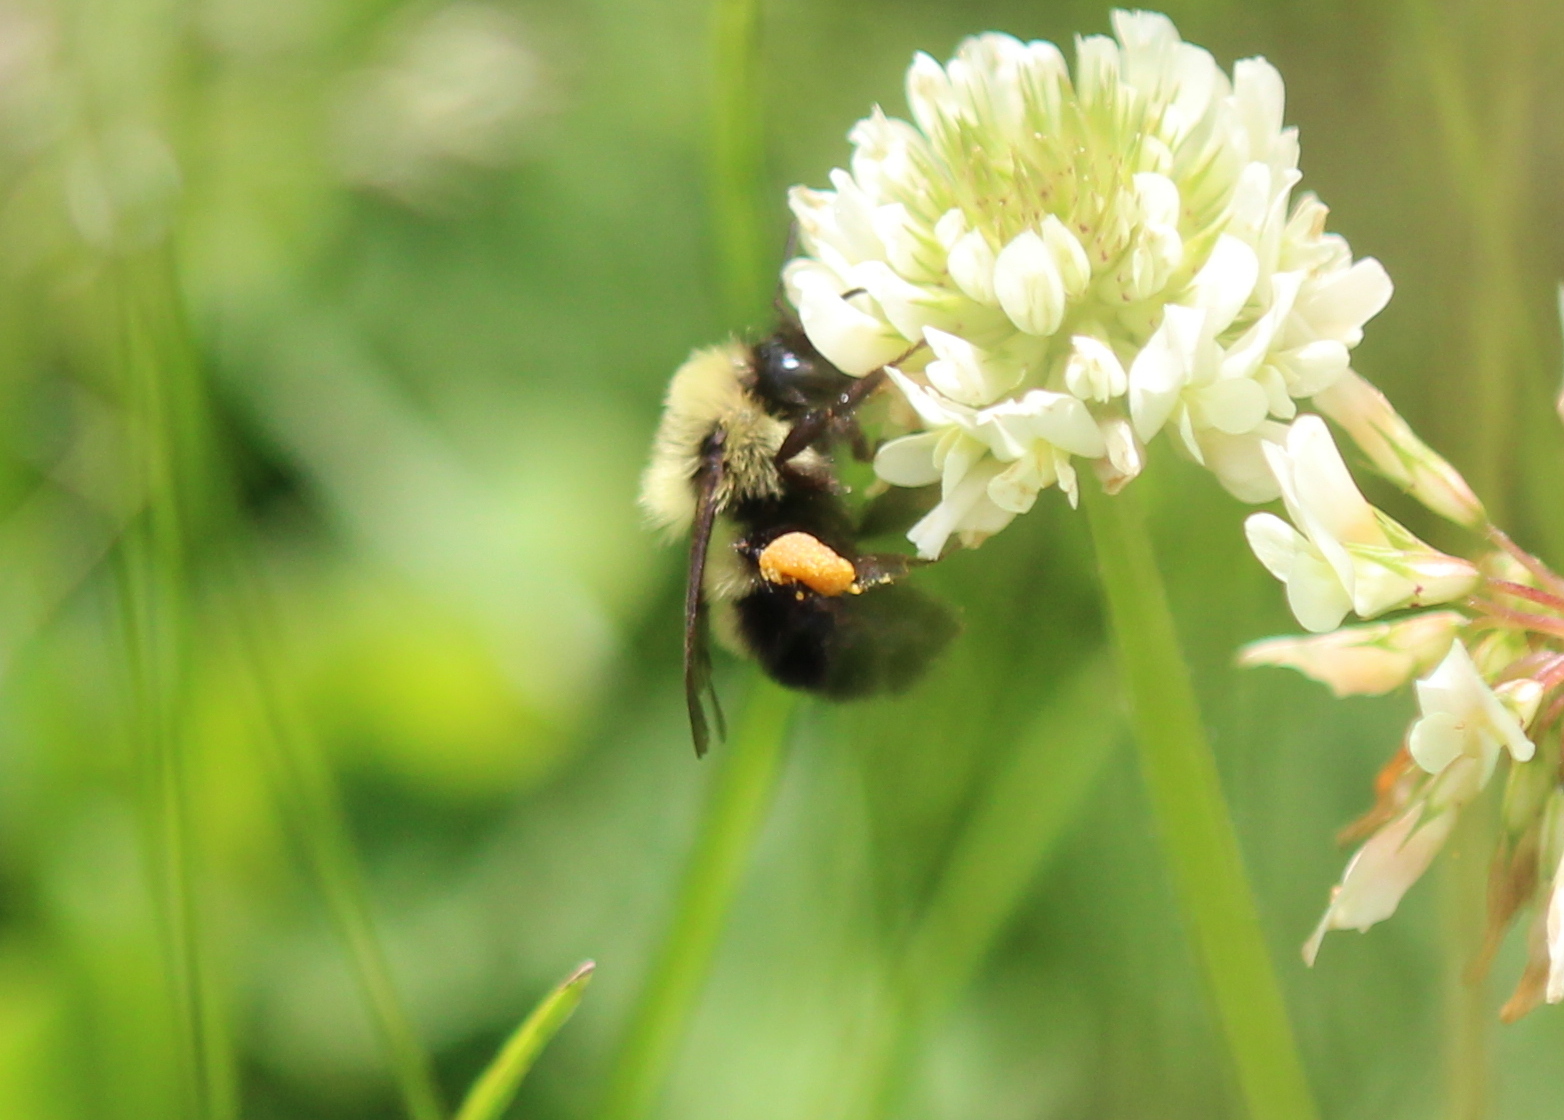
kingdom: Animalia
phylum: Arthropoda
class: Insecta
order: Hymenoptera
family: Apidae
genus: Bombus
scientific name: Bombus bimaculatus
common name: Two-spotted bumble bee
